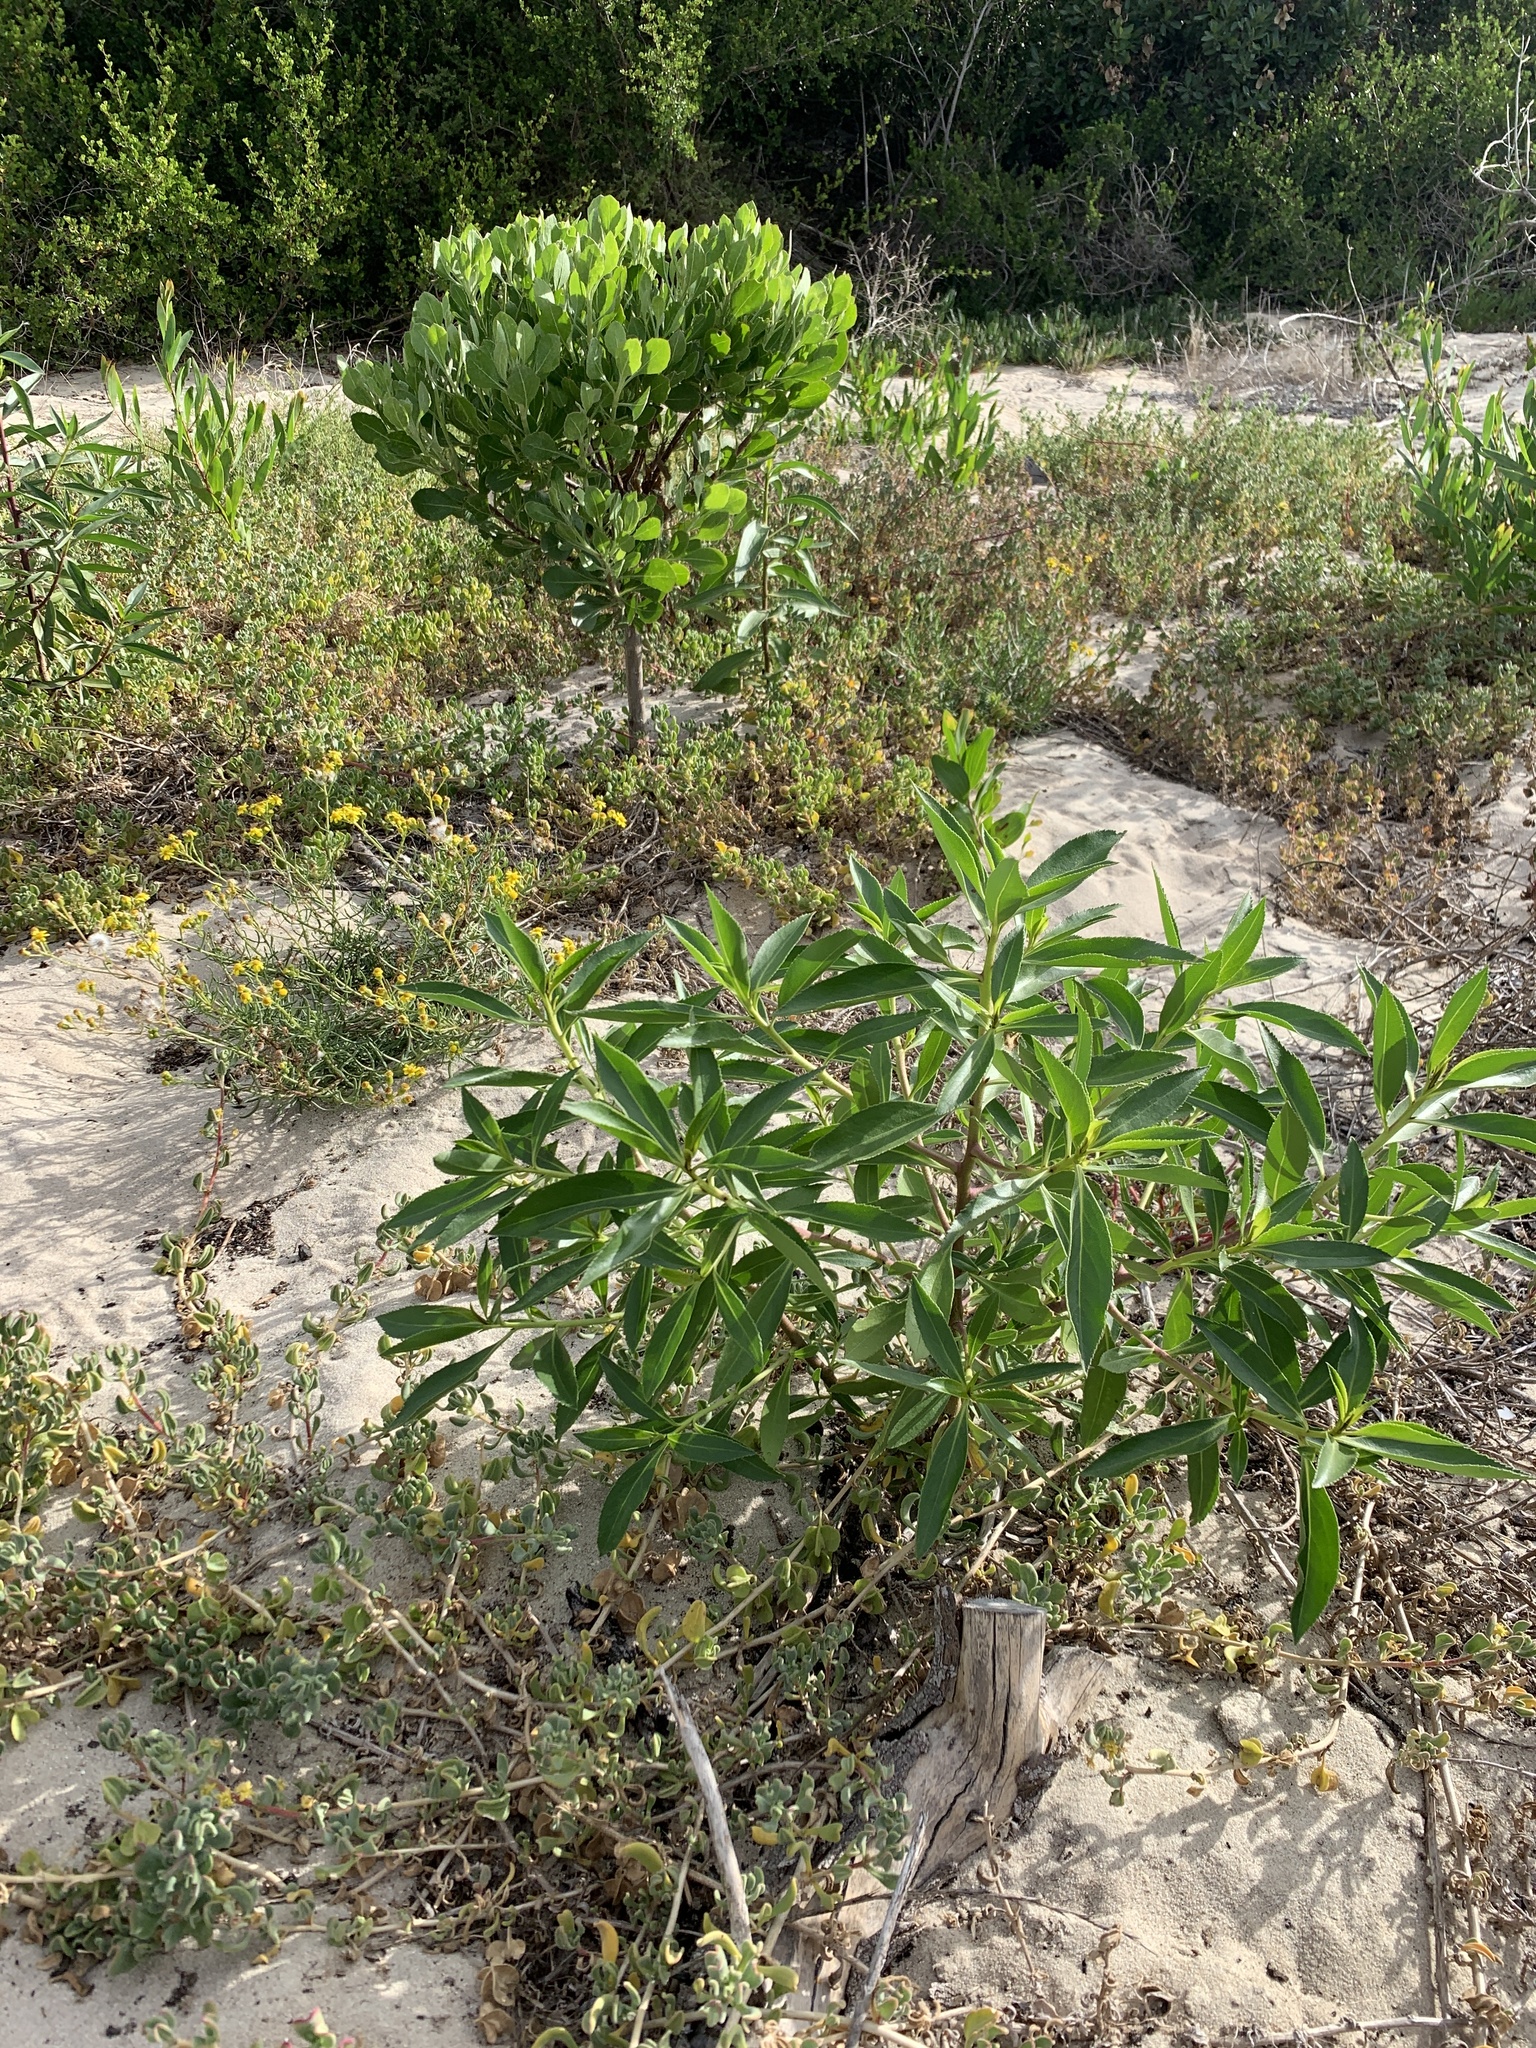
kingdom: Plantae
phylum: Tracheophyta
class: Magnoliopsida
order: Lamiales
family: Scrophulariaceae
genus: Myoporum
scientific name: Myoporum insulare
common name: Common boobialla
